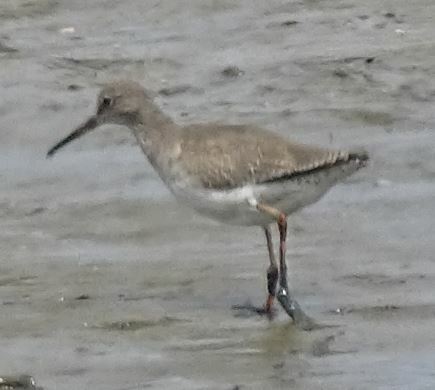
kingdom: Animalia
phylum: Chordata
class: Aves
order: Charadriiformes
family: Scolopacidae
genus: Tringa
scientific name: Tringa totanus
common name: Common redshank
